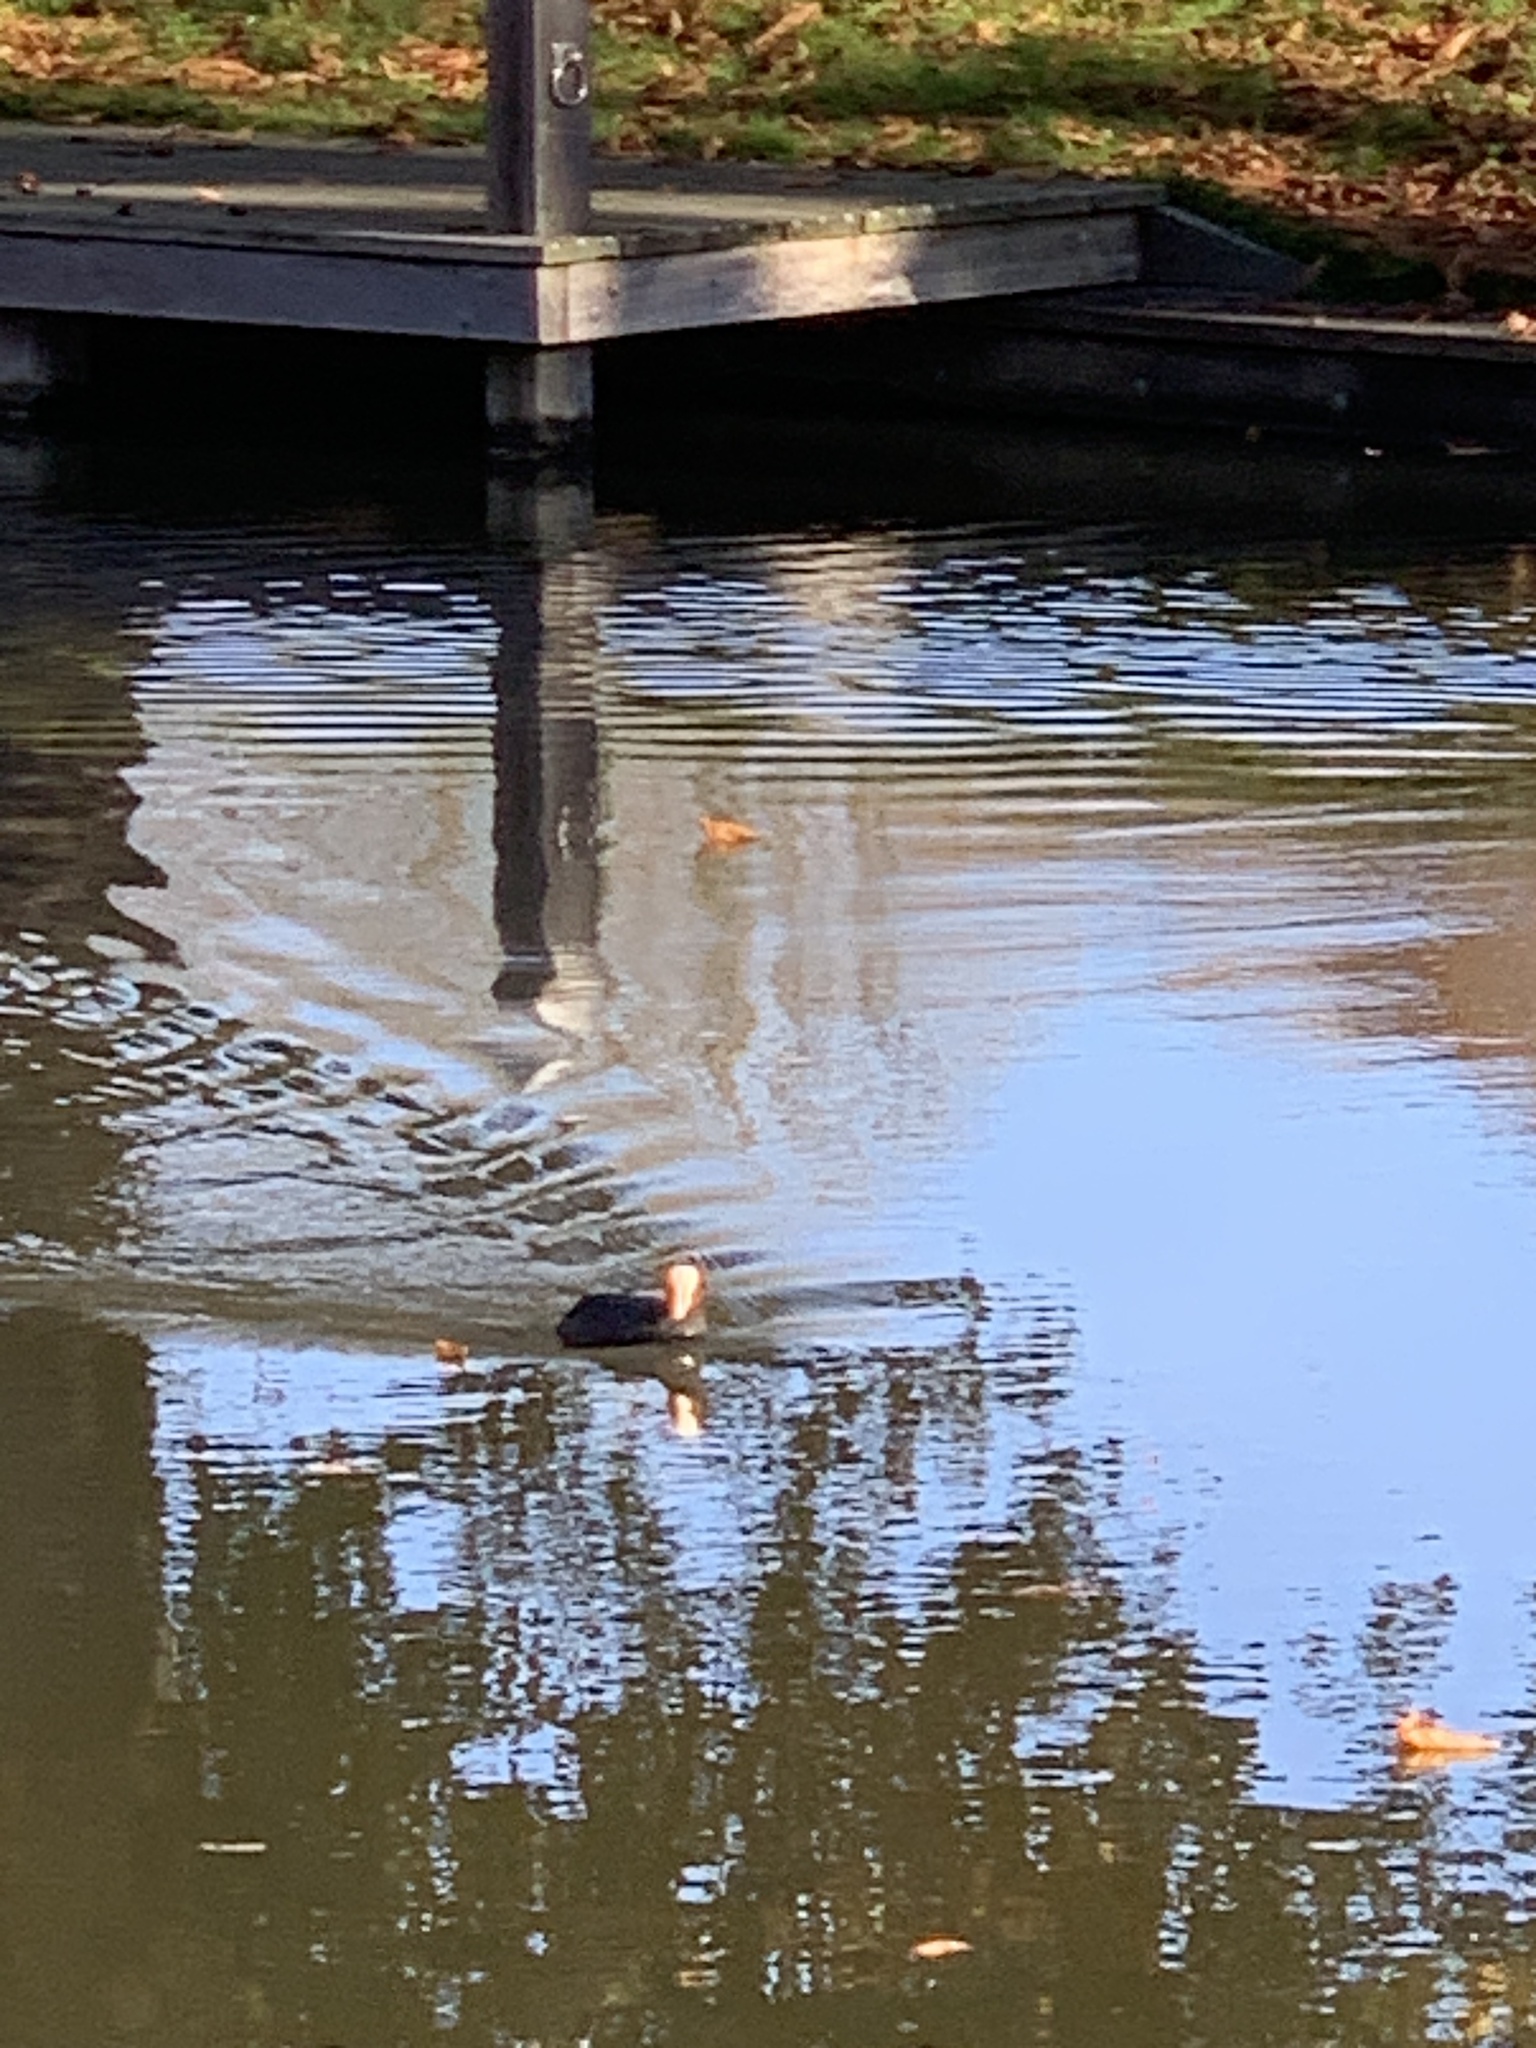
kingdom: Animalia
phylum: Chordata
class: Aves
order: Gruiformes
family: Rallidae
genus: Fulica
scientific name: Fulica atra
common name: Eurasian coot
